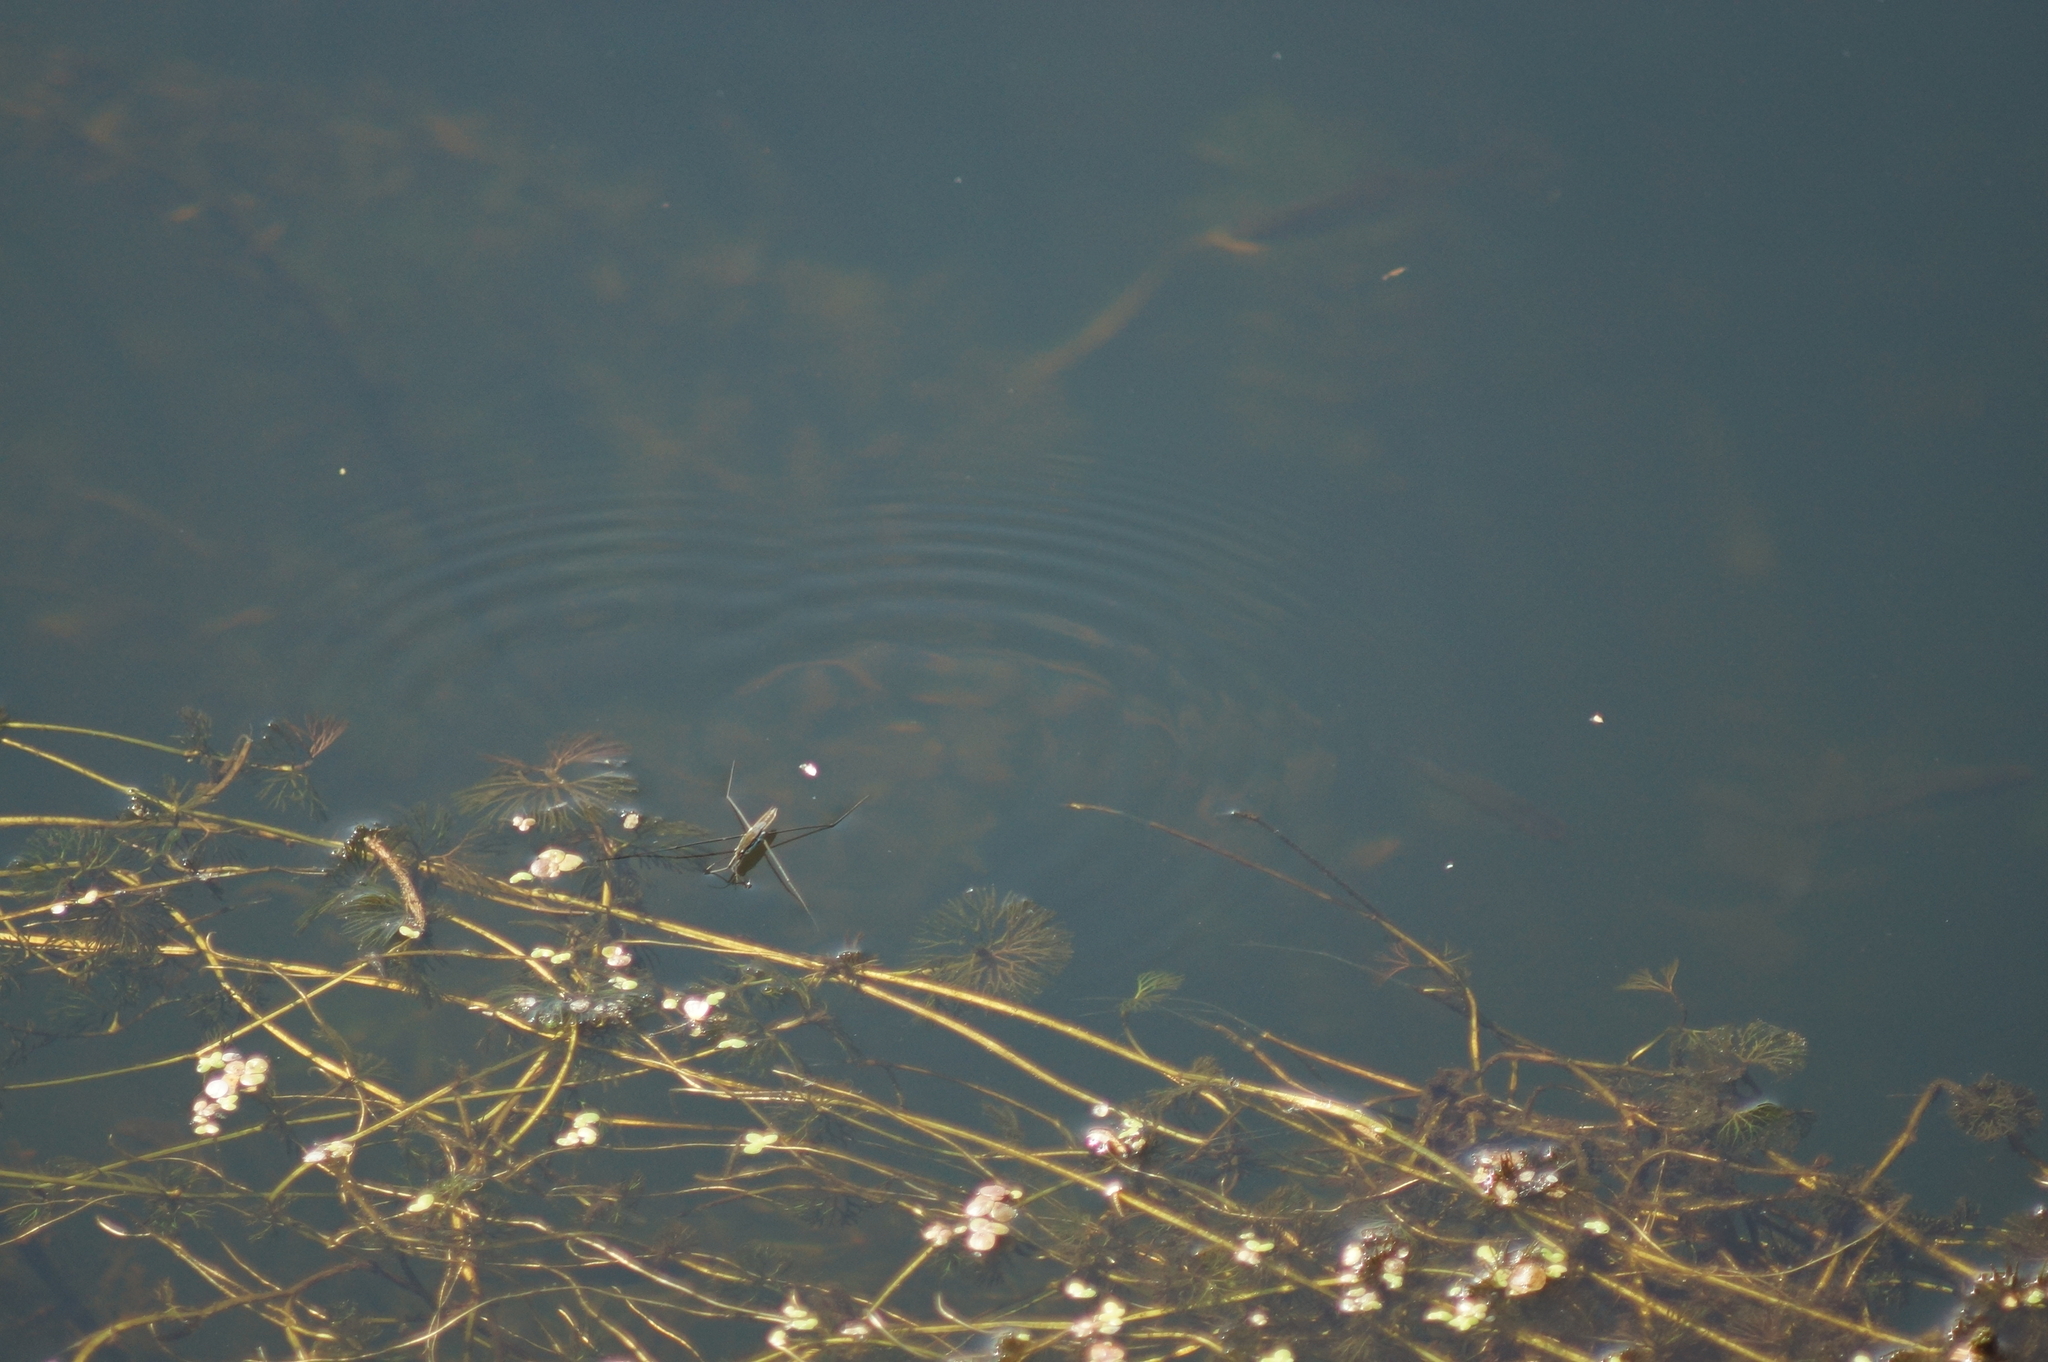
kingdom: Animalia
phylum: Arthropoda
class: Insecta
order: Hemiptera
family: Gerridae
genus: Aquarius
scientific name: Aquarius paludum
